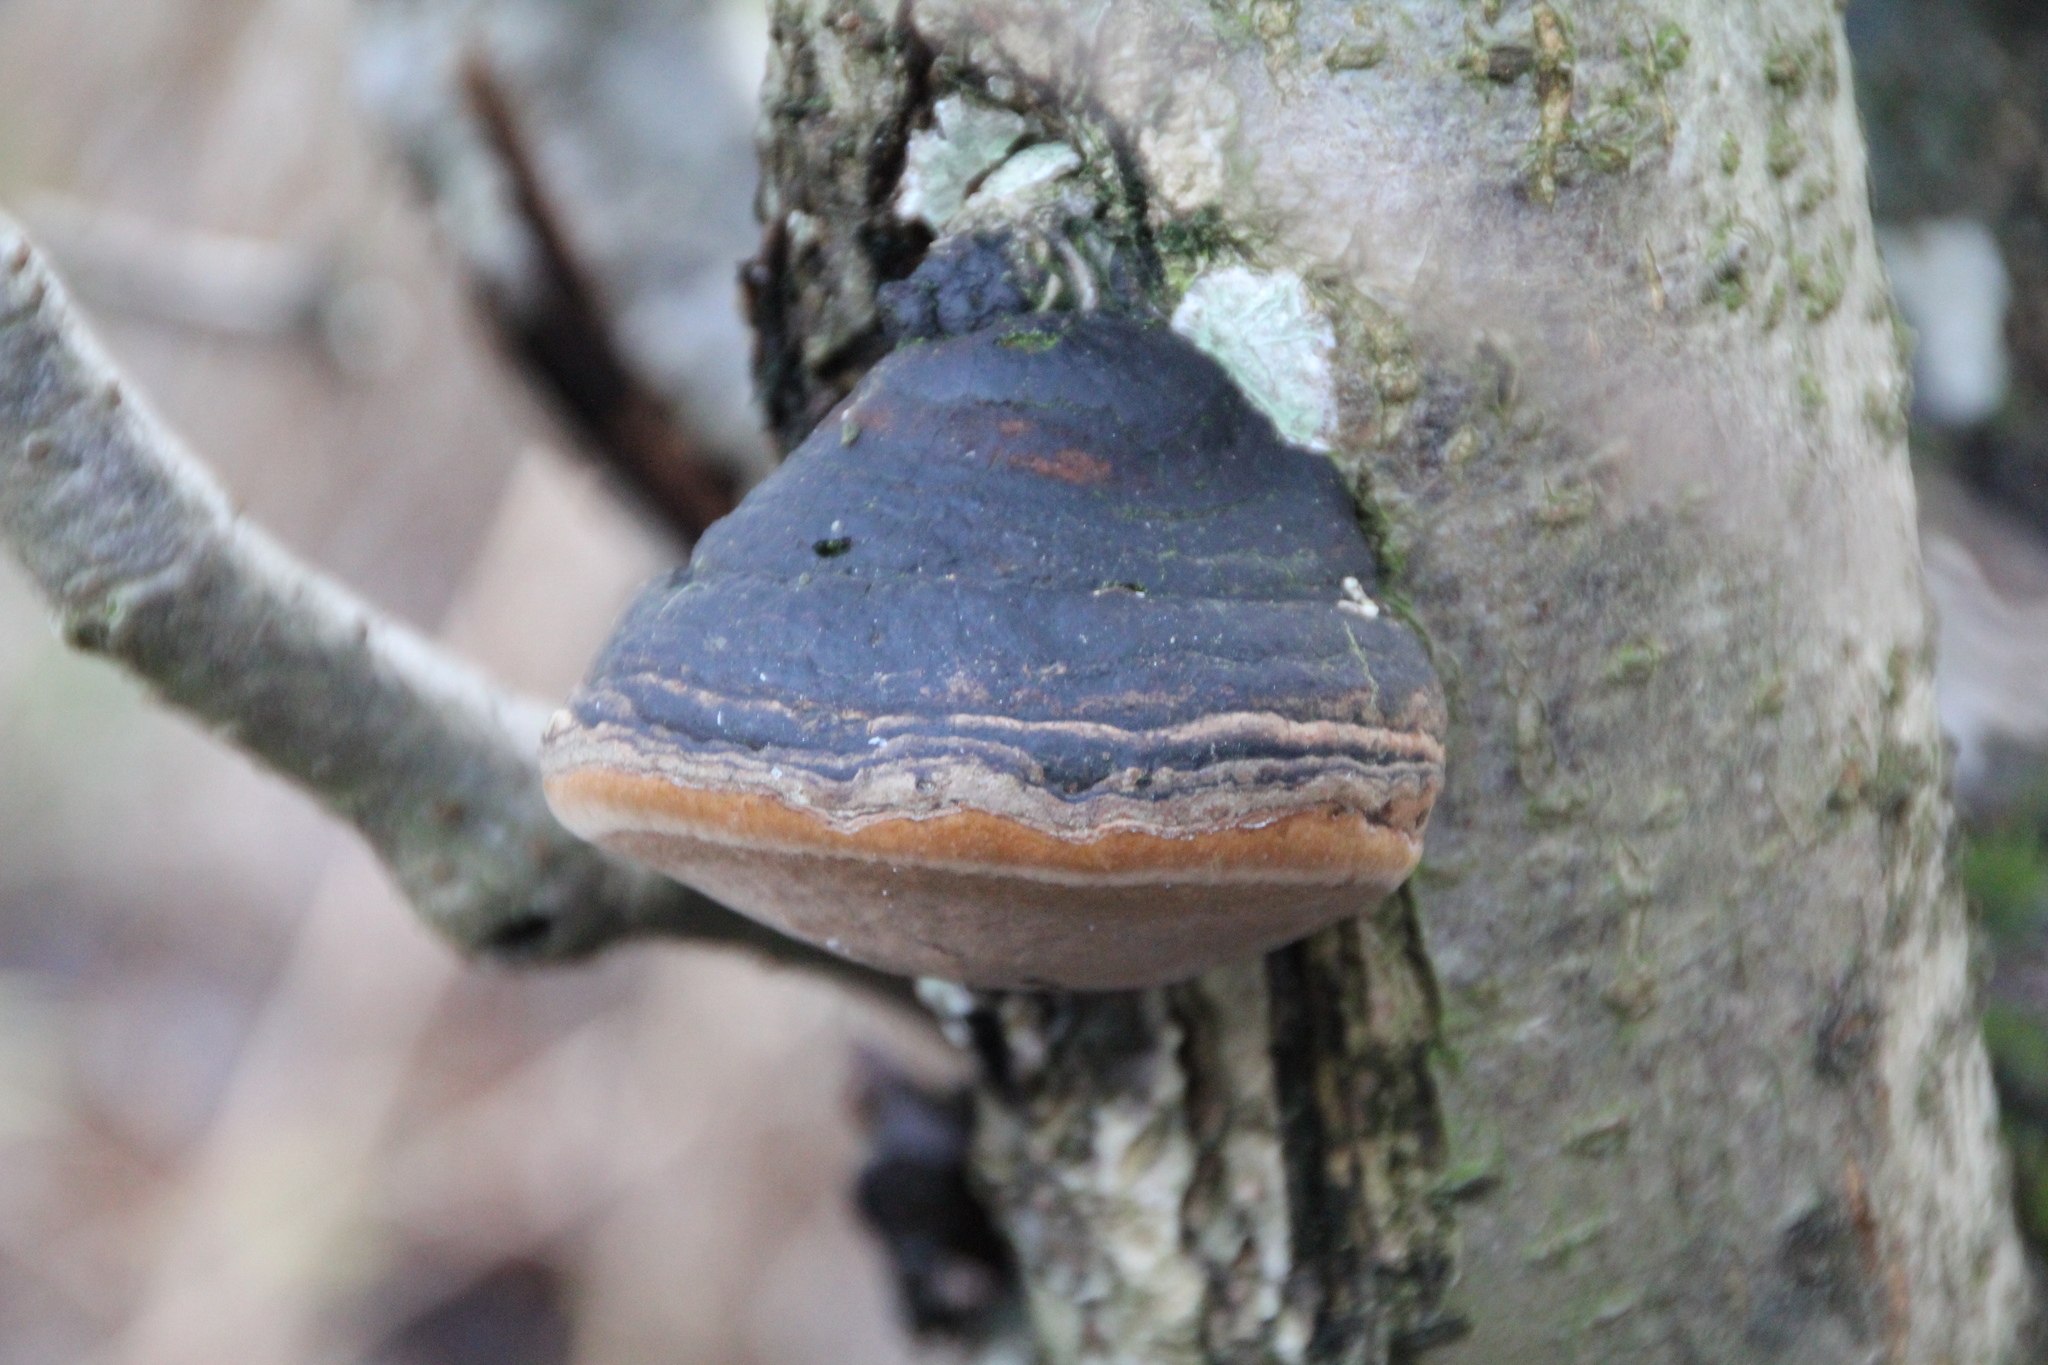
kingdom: Fungi
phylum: Basidiomycota
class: Agaricomycetes
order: Polyporales
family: Fomitopsidaceae
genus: Fomitopsis
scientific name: Fomitopsis pinicola
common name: Red-belted bracket
